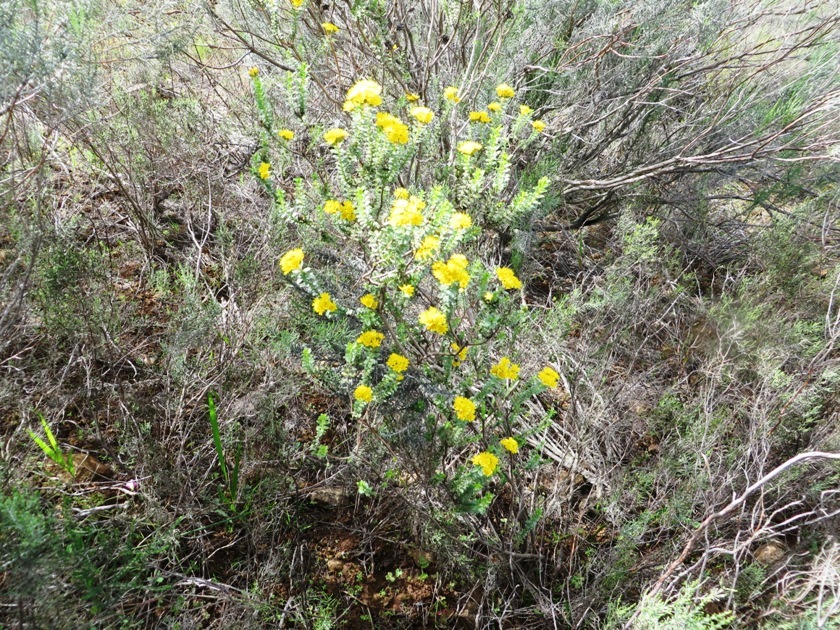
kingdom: Plantae
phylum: Tracheophyta
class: Magnoliopsida
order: Asterales
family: Asteraceae
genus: Oedera
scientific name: Oedera squarrosa
